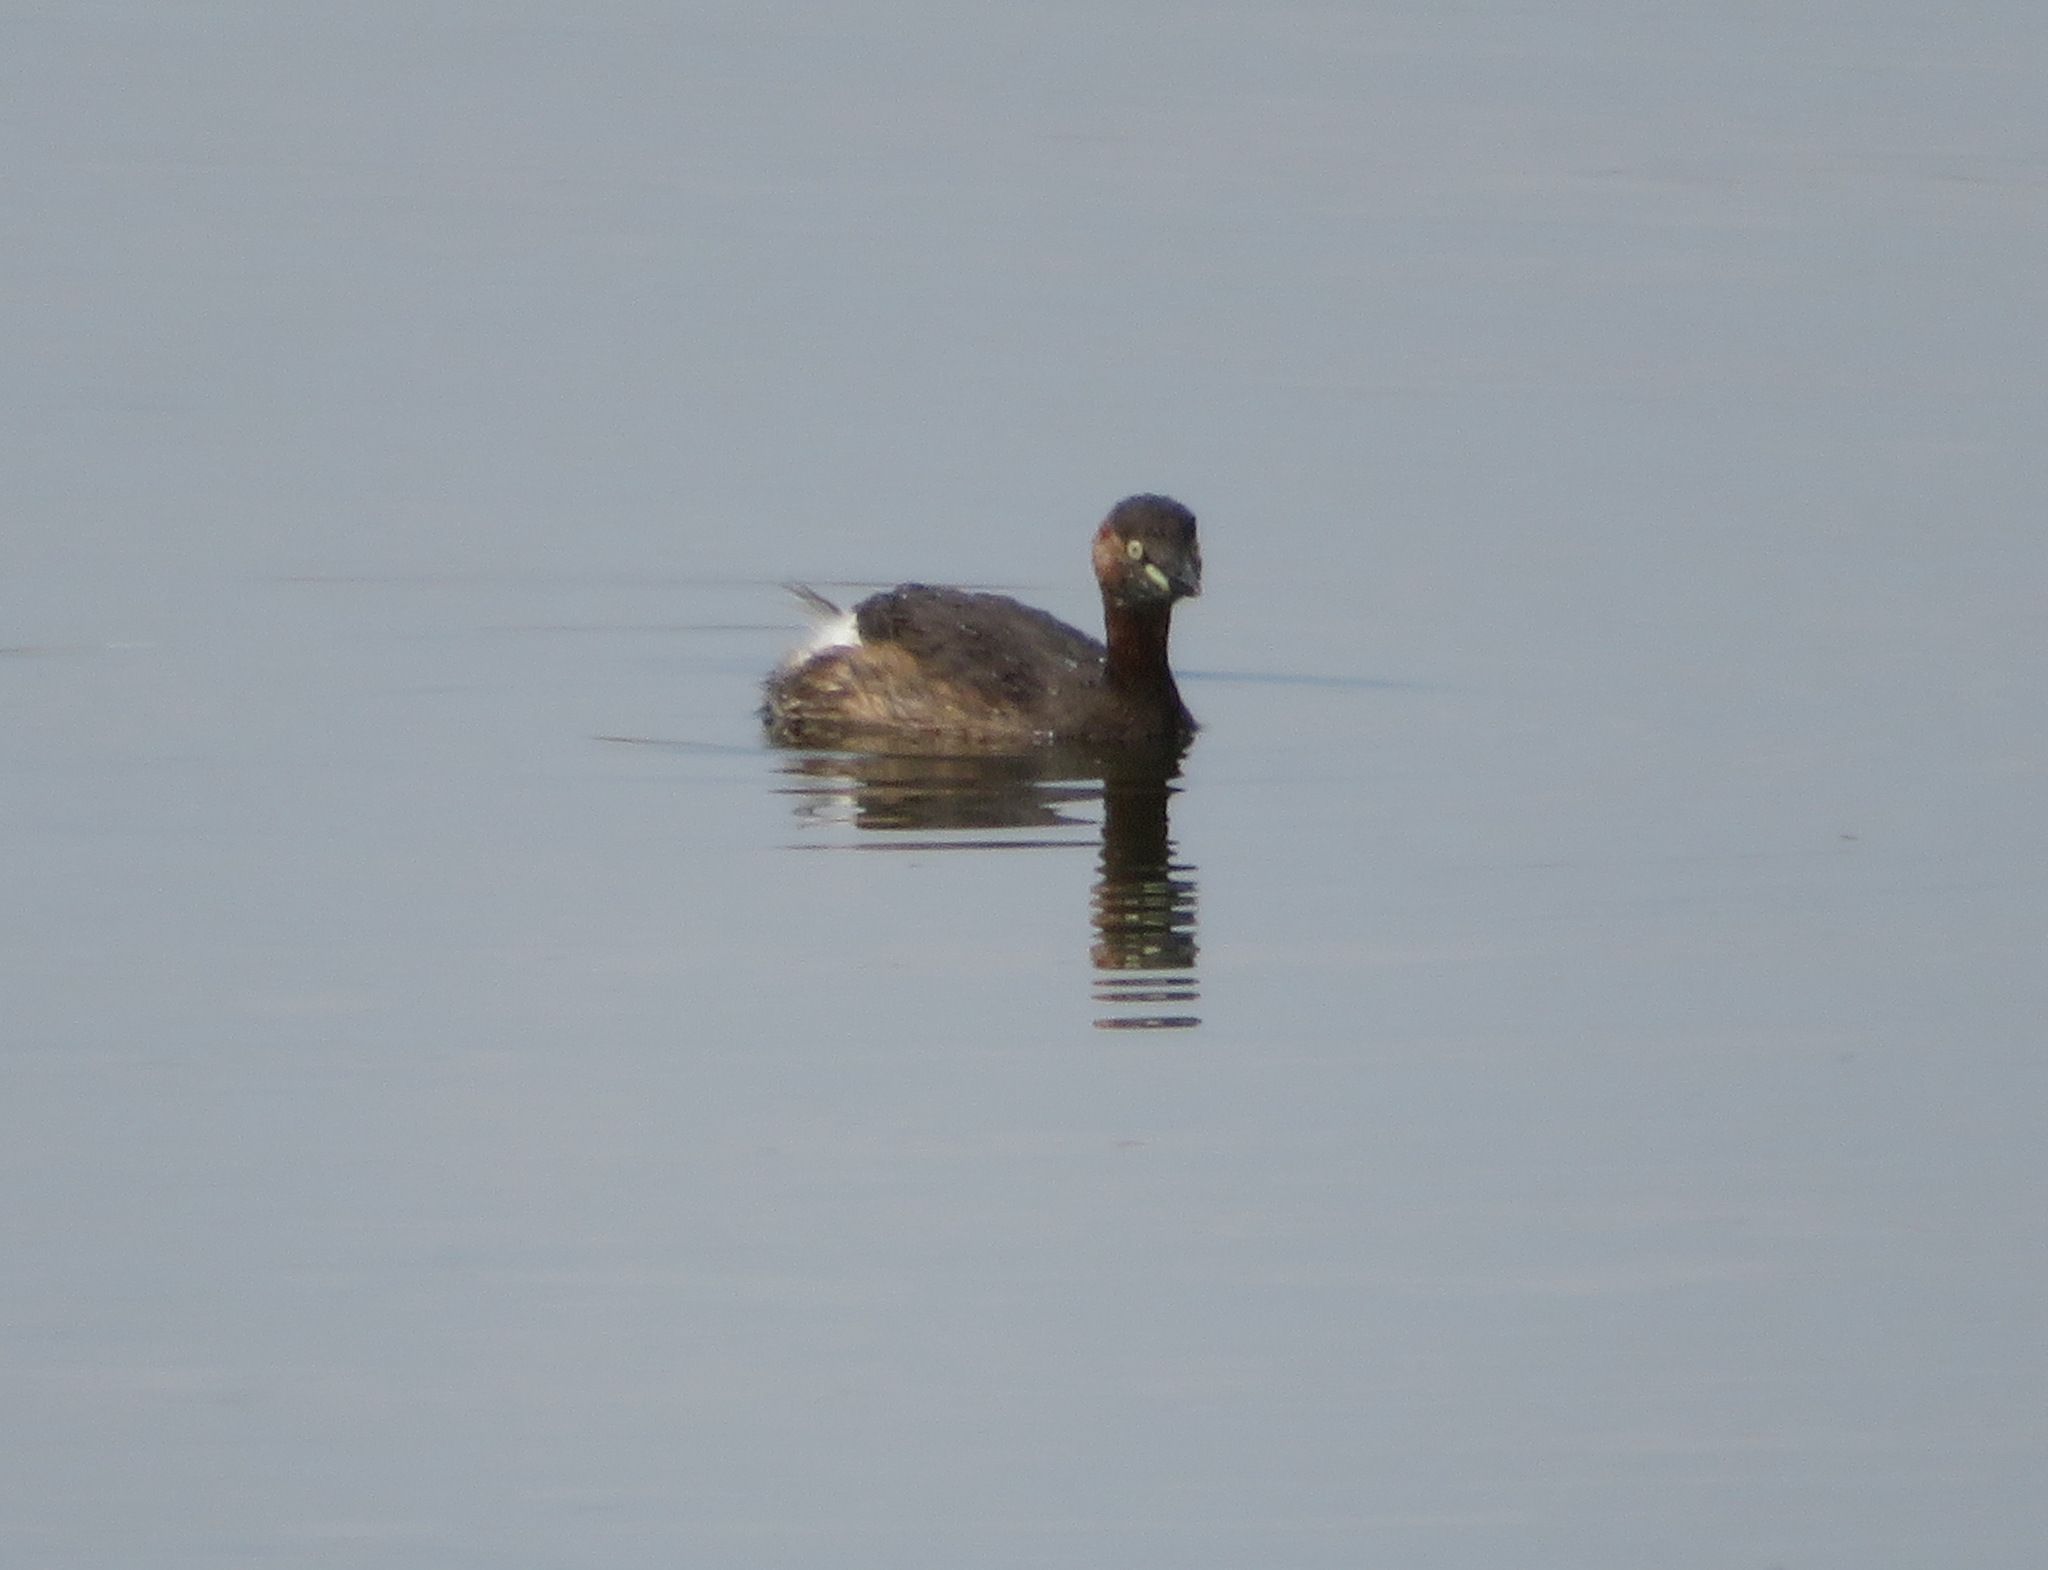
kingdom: Animalia
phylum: Chordata
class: Aves
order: Podicipediformes
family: Podicipedidae
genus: Tachybaptus
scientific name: Tachybaptus ruficollis
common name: Little grebe
